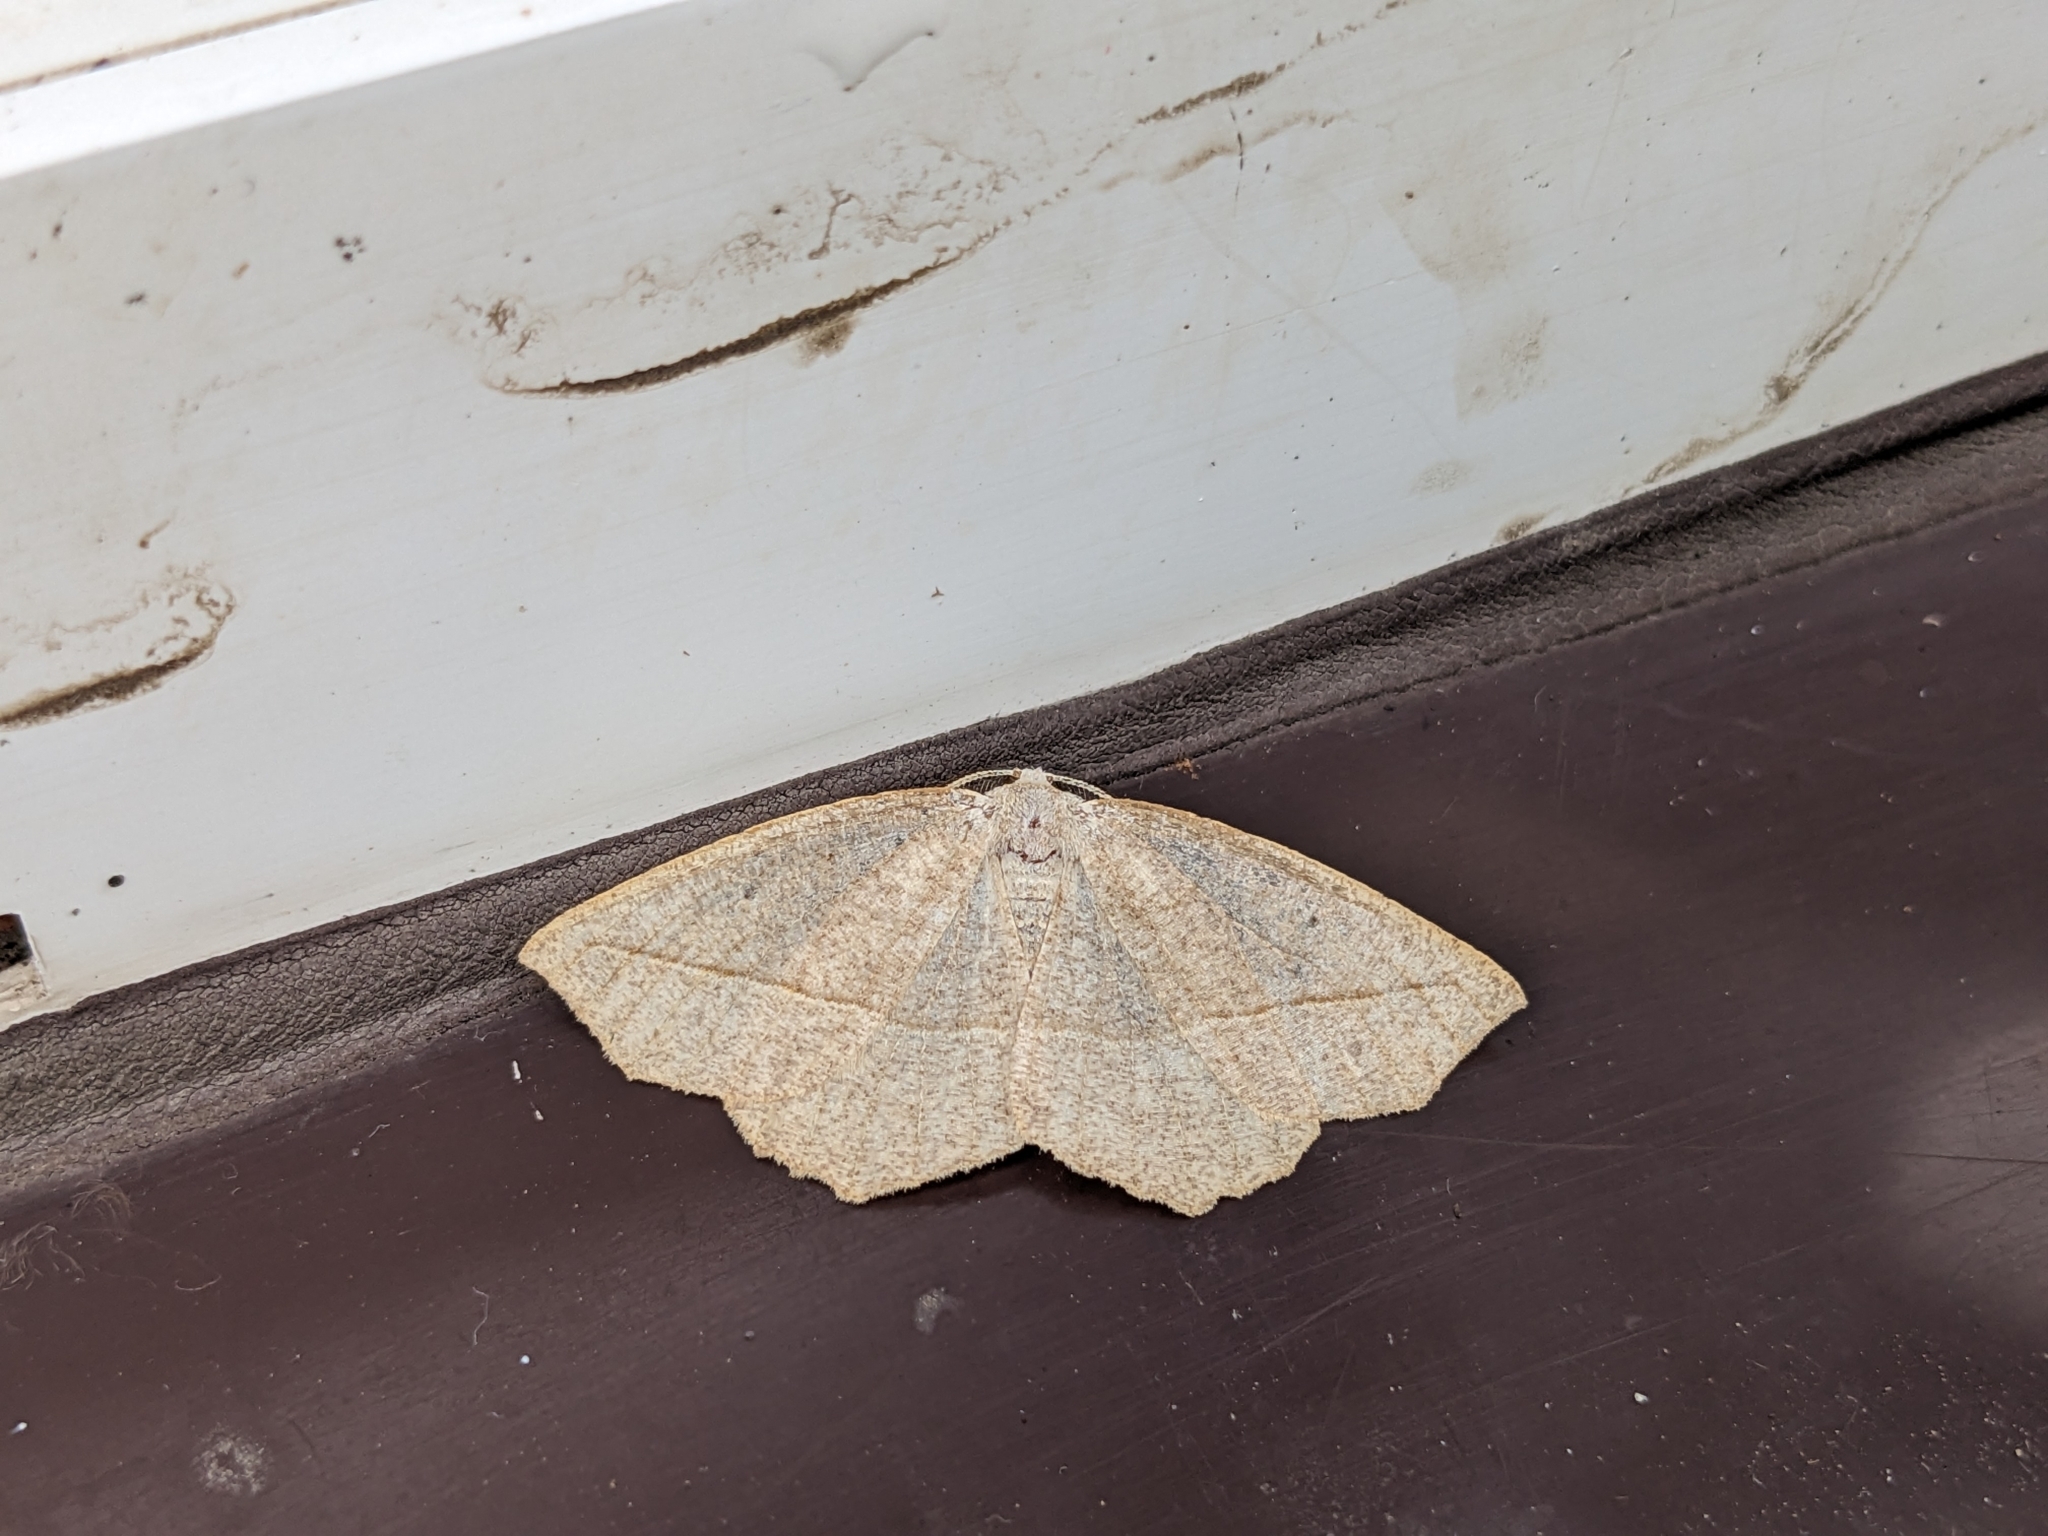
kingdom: Animalia
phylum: Arthropoda
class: Insecta
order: Lepidoptera
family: Geometridae
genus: Eusarca
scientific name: Eusarca confusaria
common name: Confused eusarca
